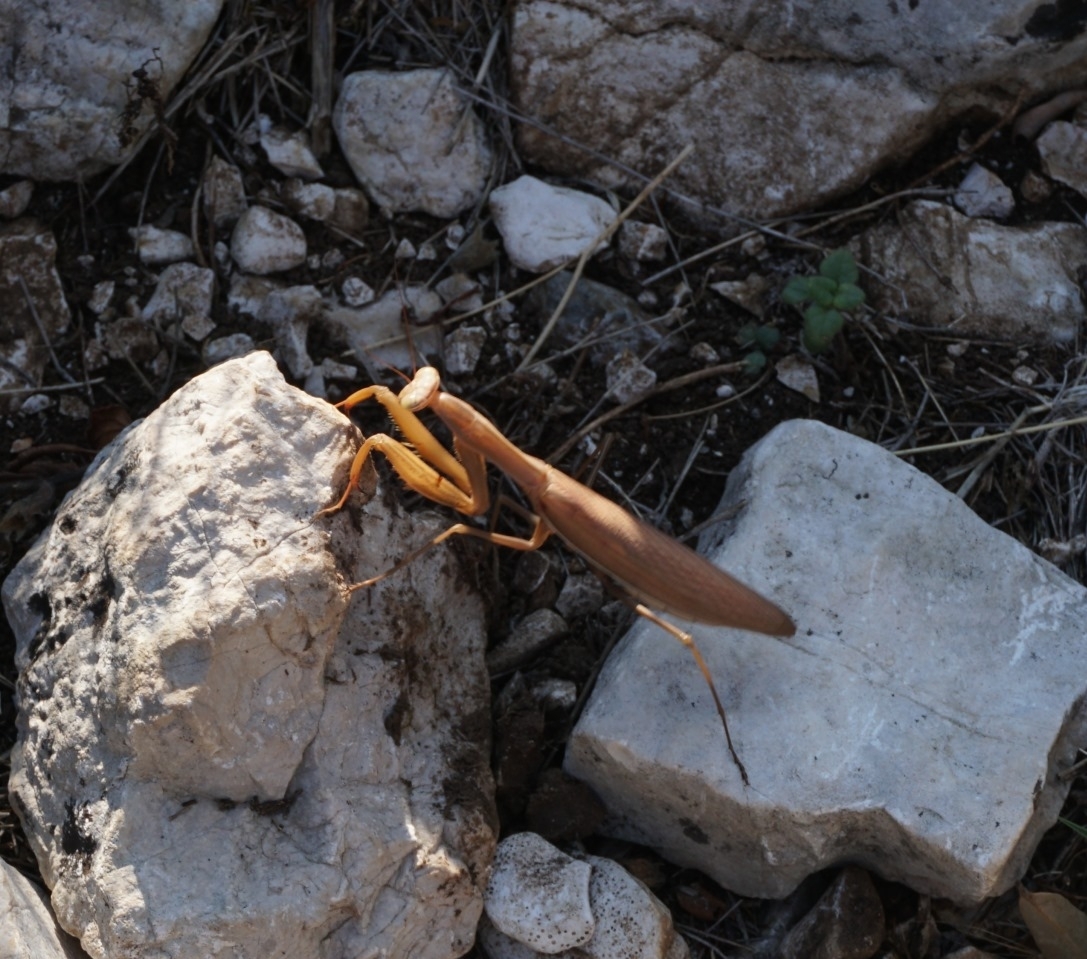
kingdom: Animalia
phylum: Arthropoda
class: Insecta
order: Mantodea
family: Mantidae
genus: Mantis
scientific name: Mantis religiosa
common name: Praying mantis
